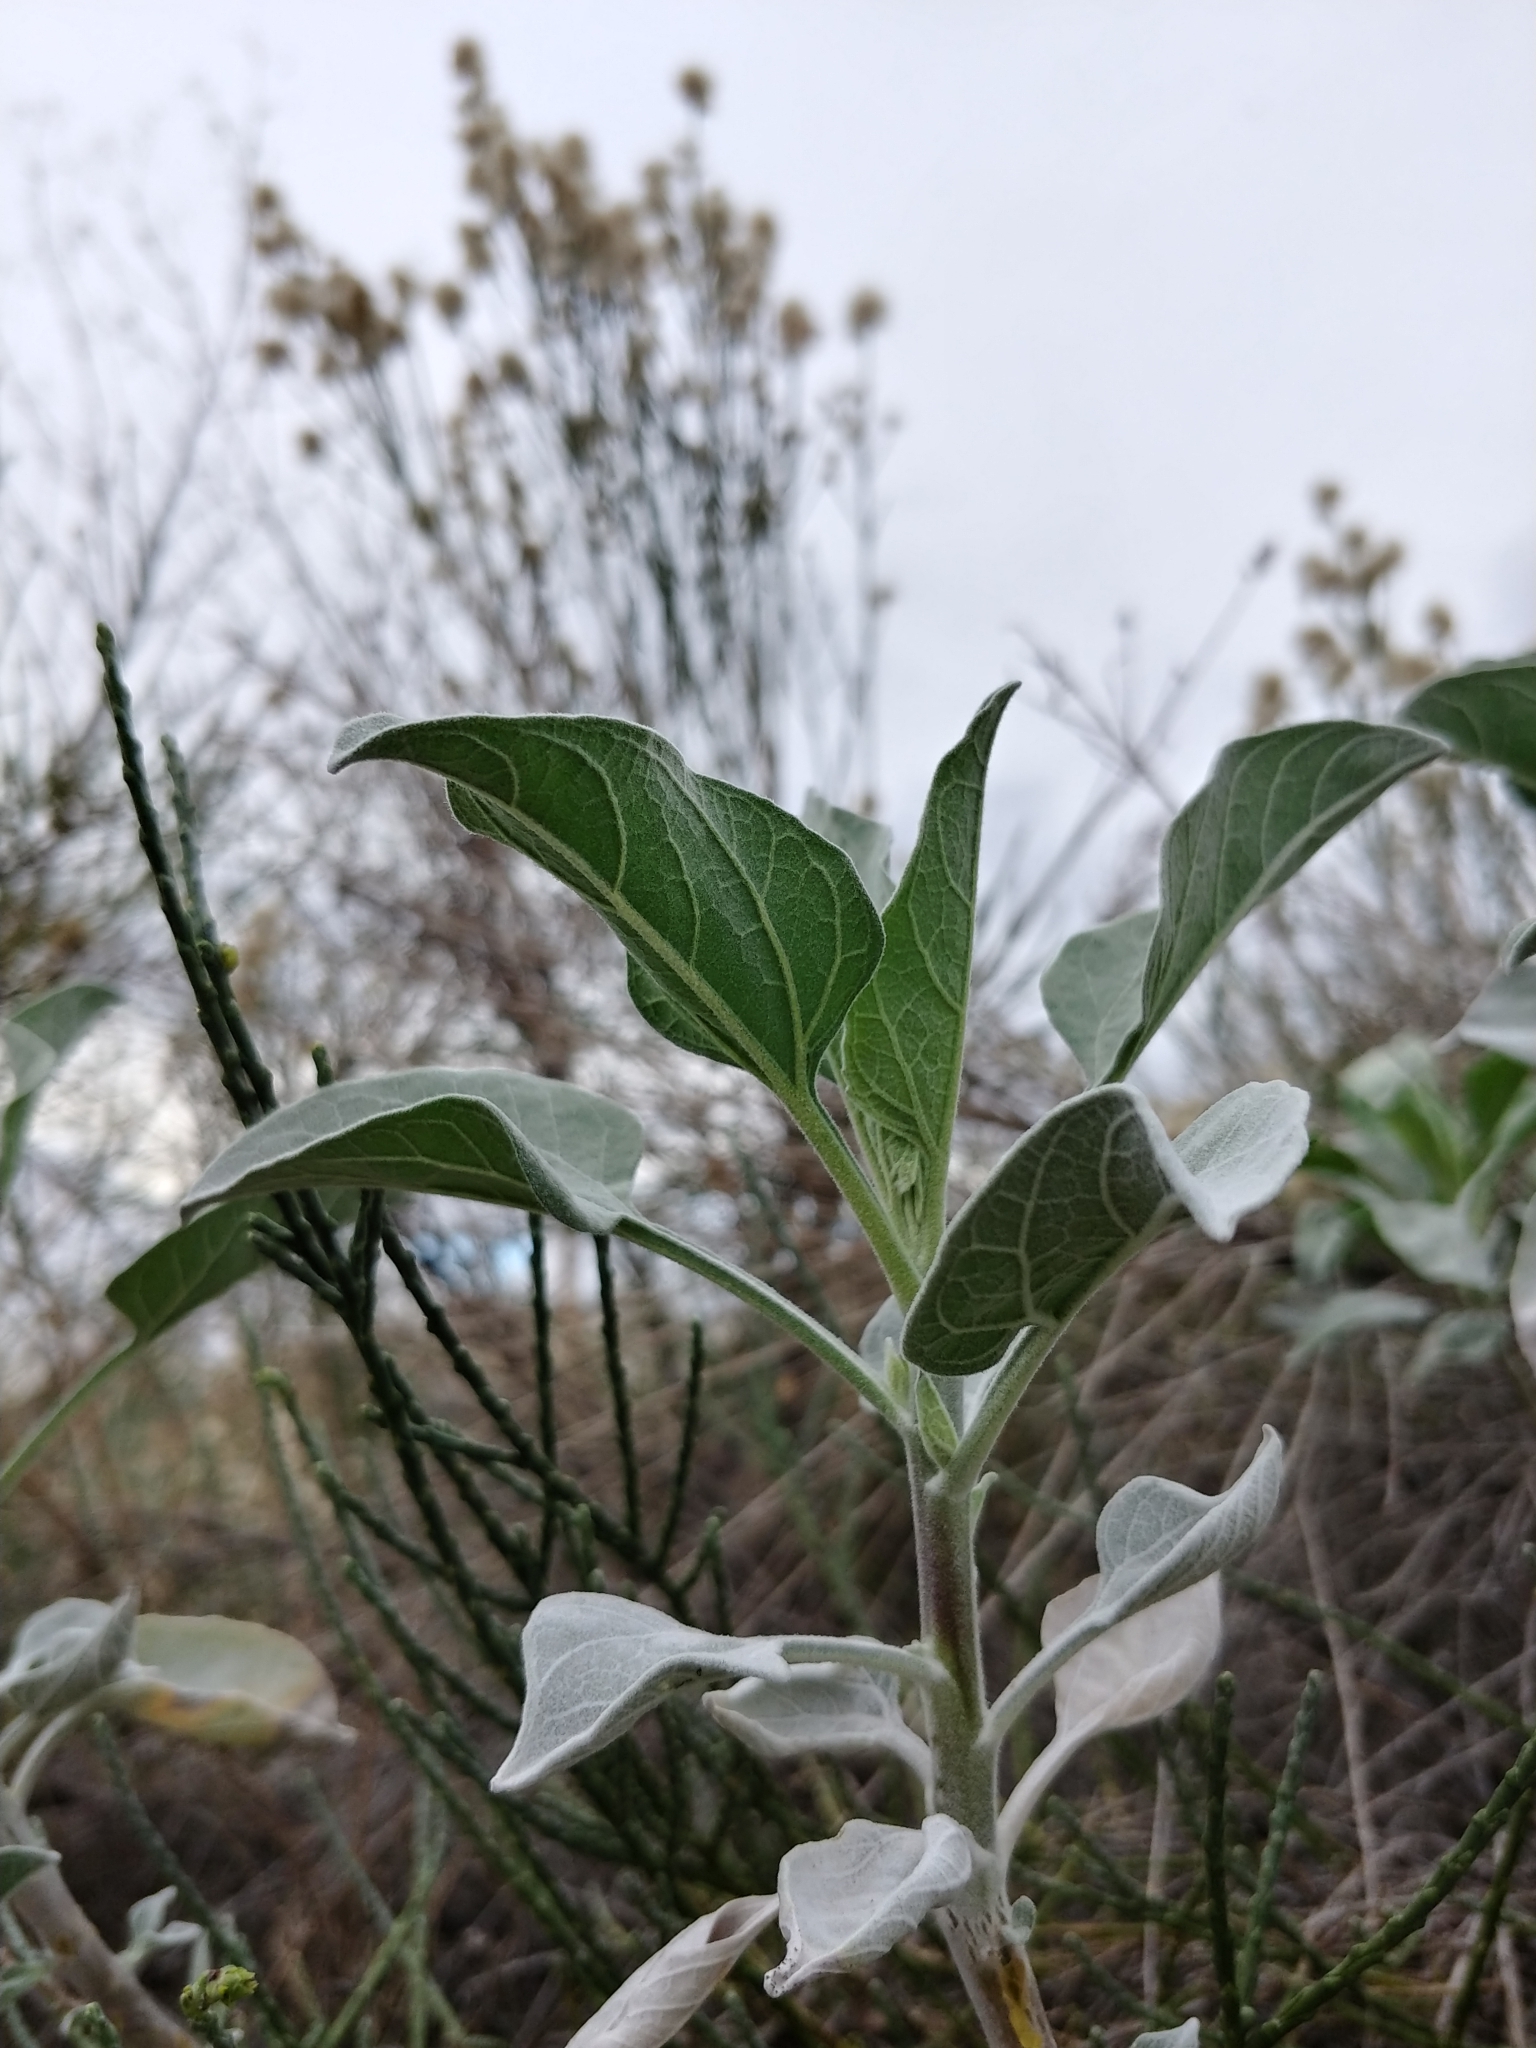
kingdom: Plantae
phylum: Tracheophyta
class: Magnoliopsida
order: Asterales
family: Asteraceae
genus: Encelia
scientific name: Encelia farinosa
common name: Brittlebush
